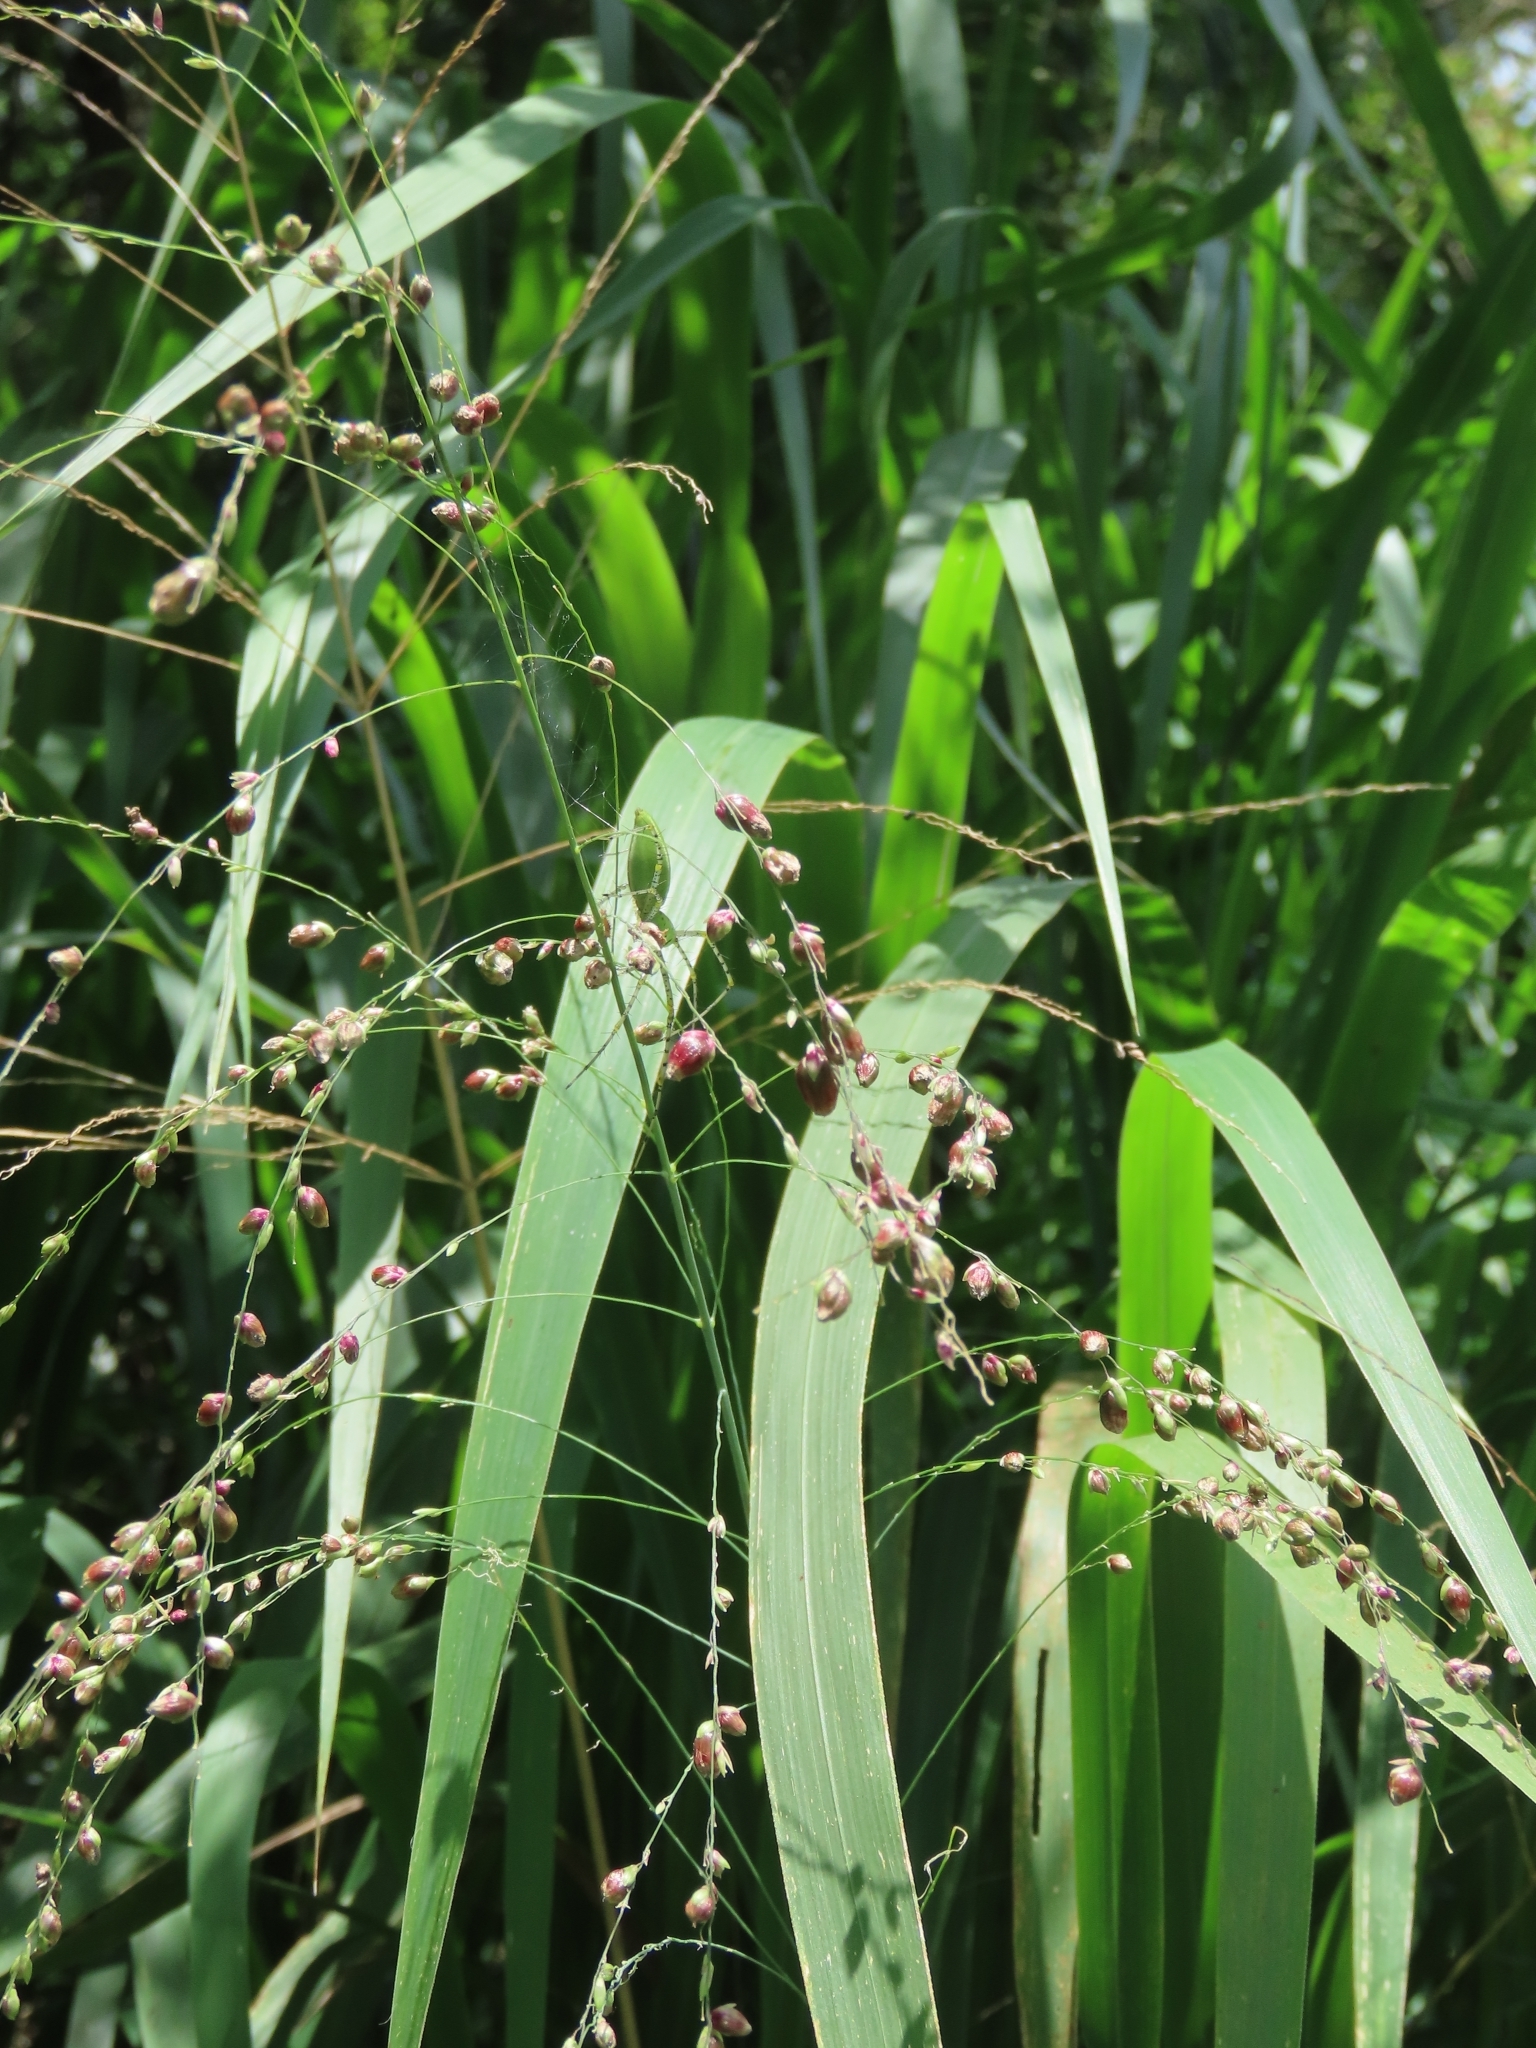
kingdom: Plantae
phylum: Tracheophyta
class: Liliopsida
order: Poales
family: Poaceae
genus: Megathyrsus
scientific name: Megathyrsus maximus
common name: Guineagrass
